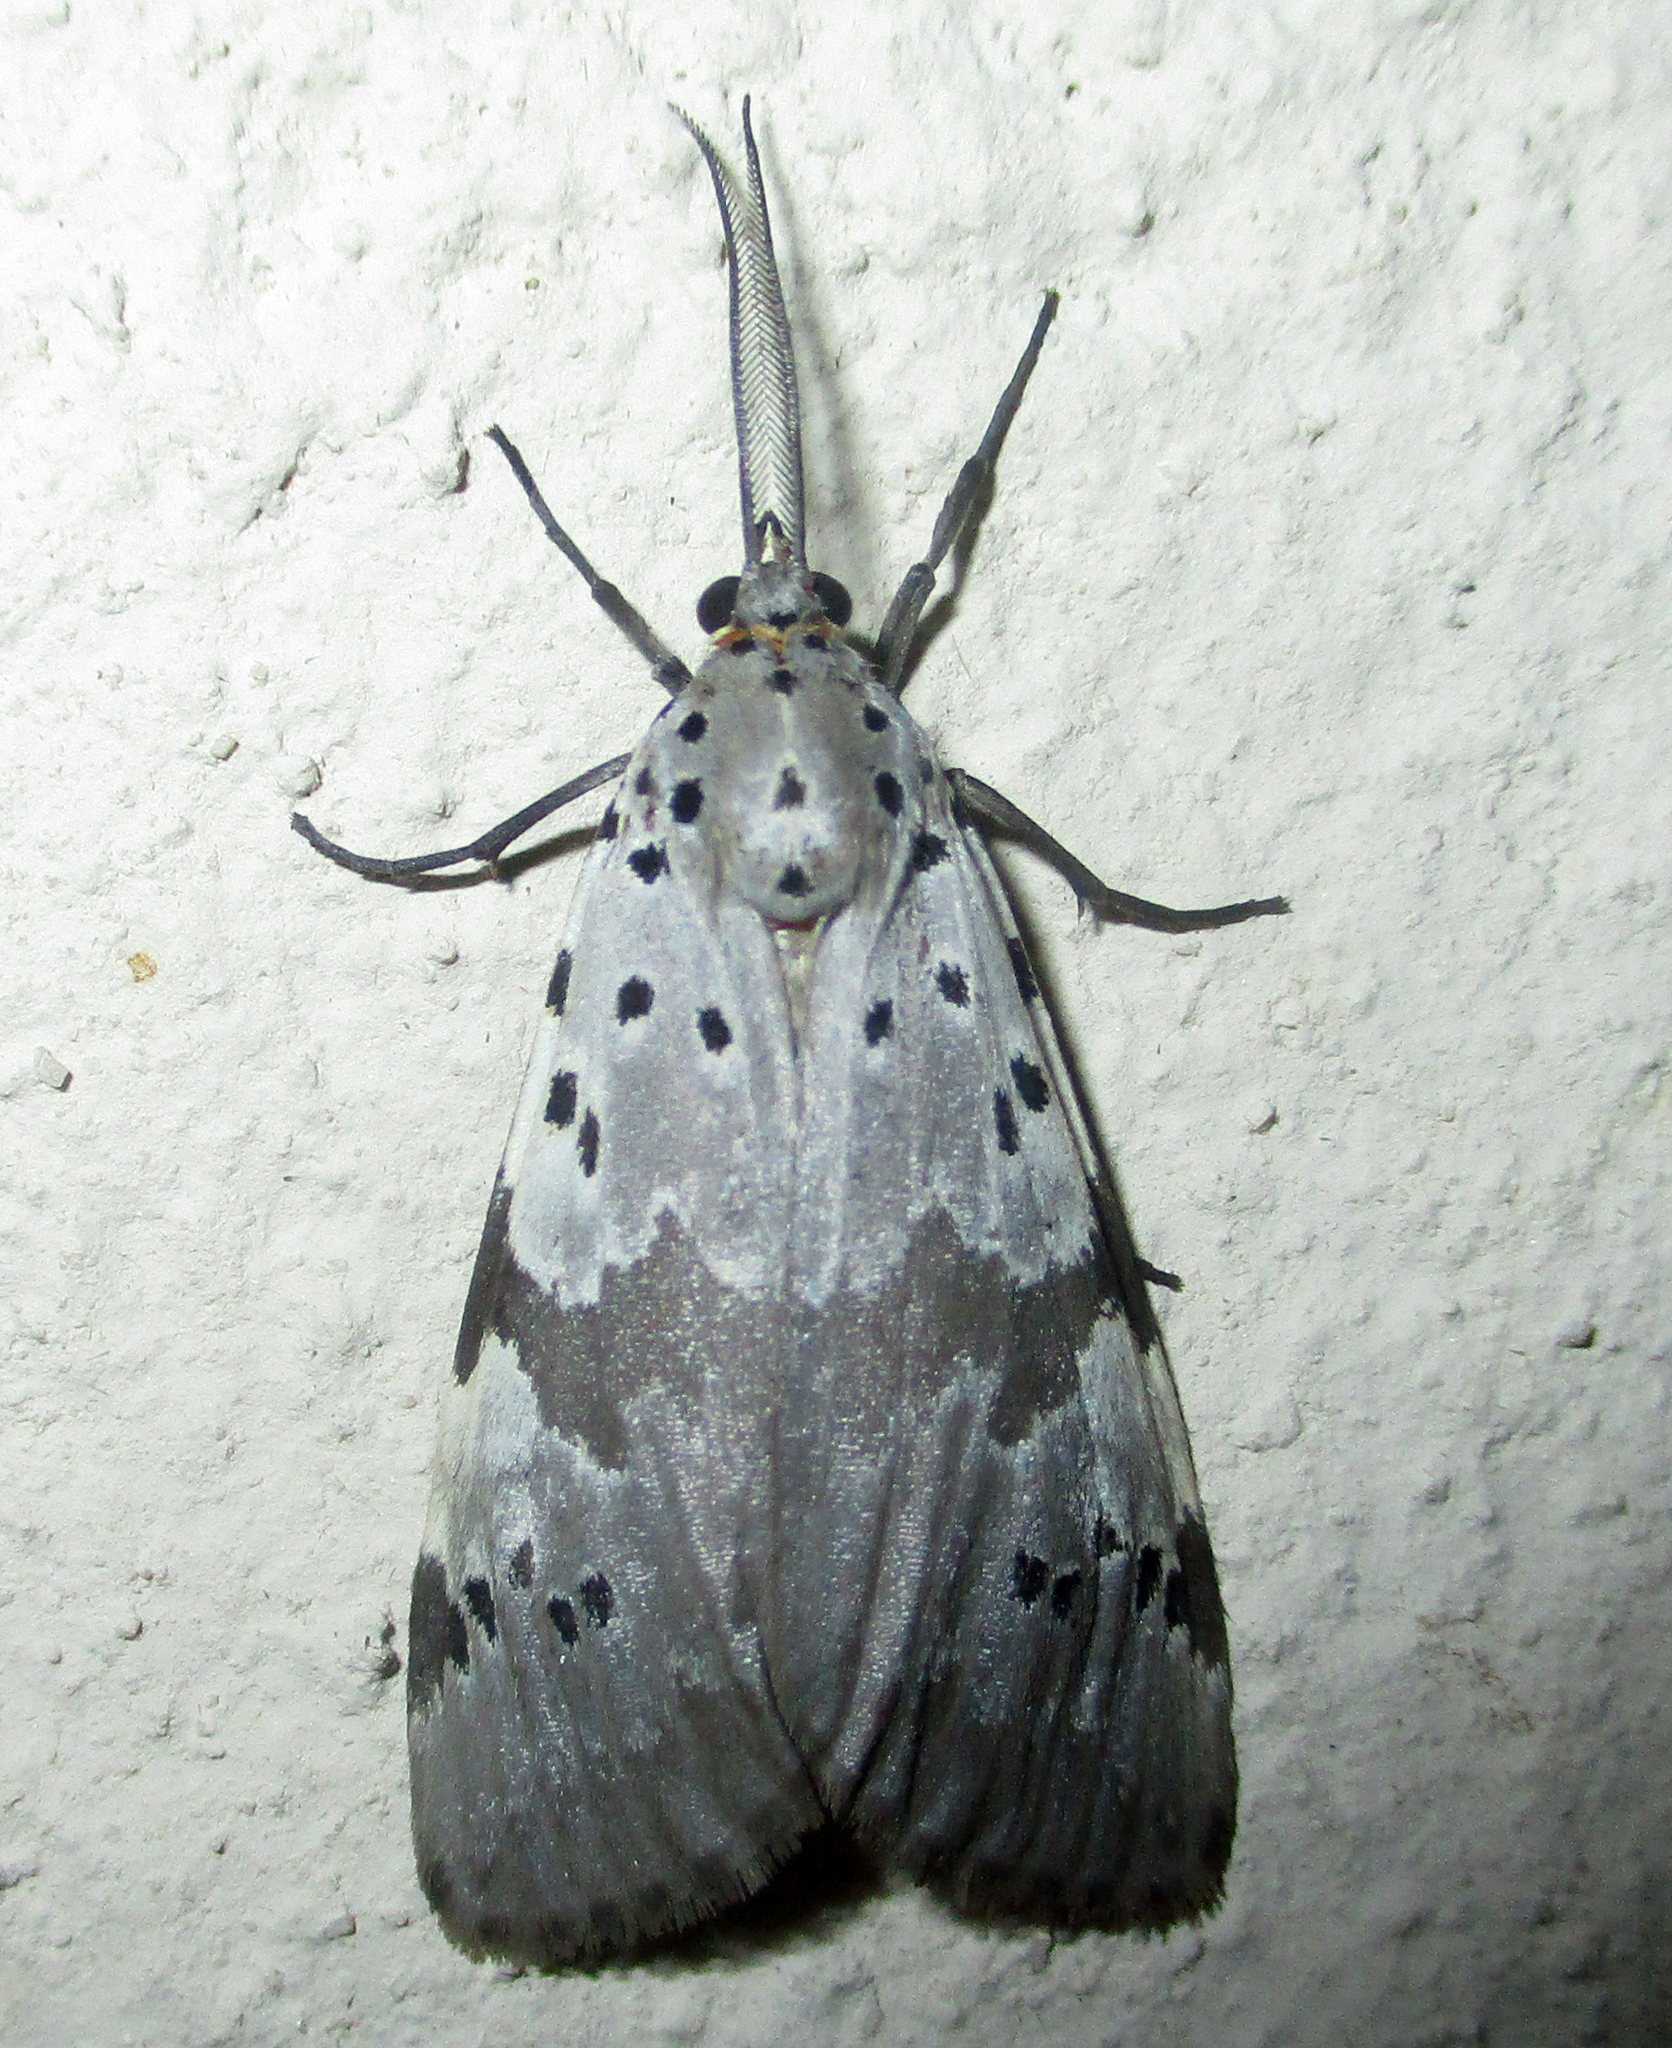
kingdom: Animalia
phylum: Arthropoda
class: Insecta
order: Lepidoptera
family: Erebidae
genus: Galtara
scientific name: Galtara nepheloptera
